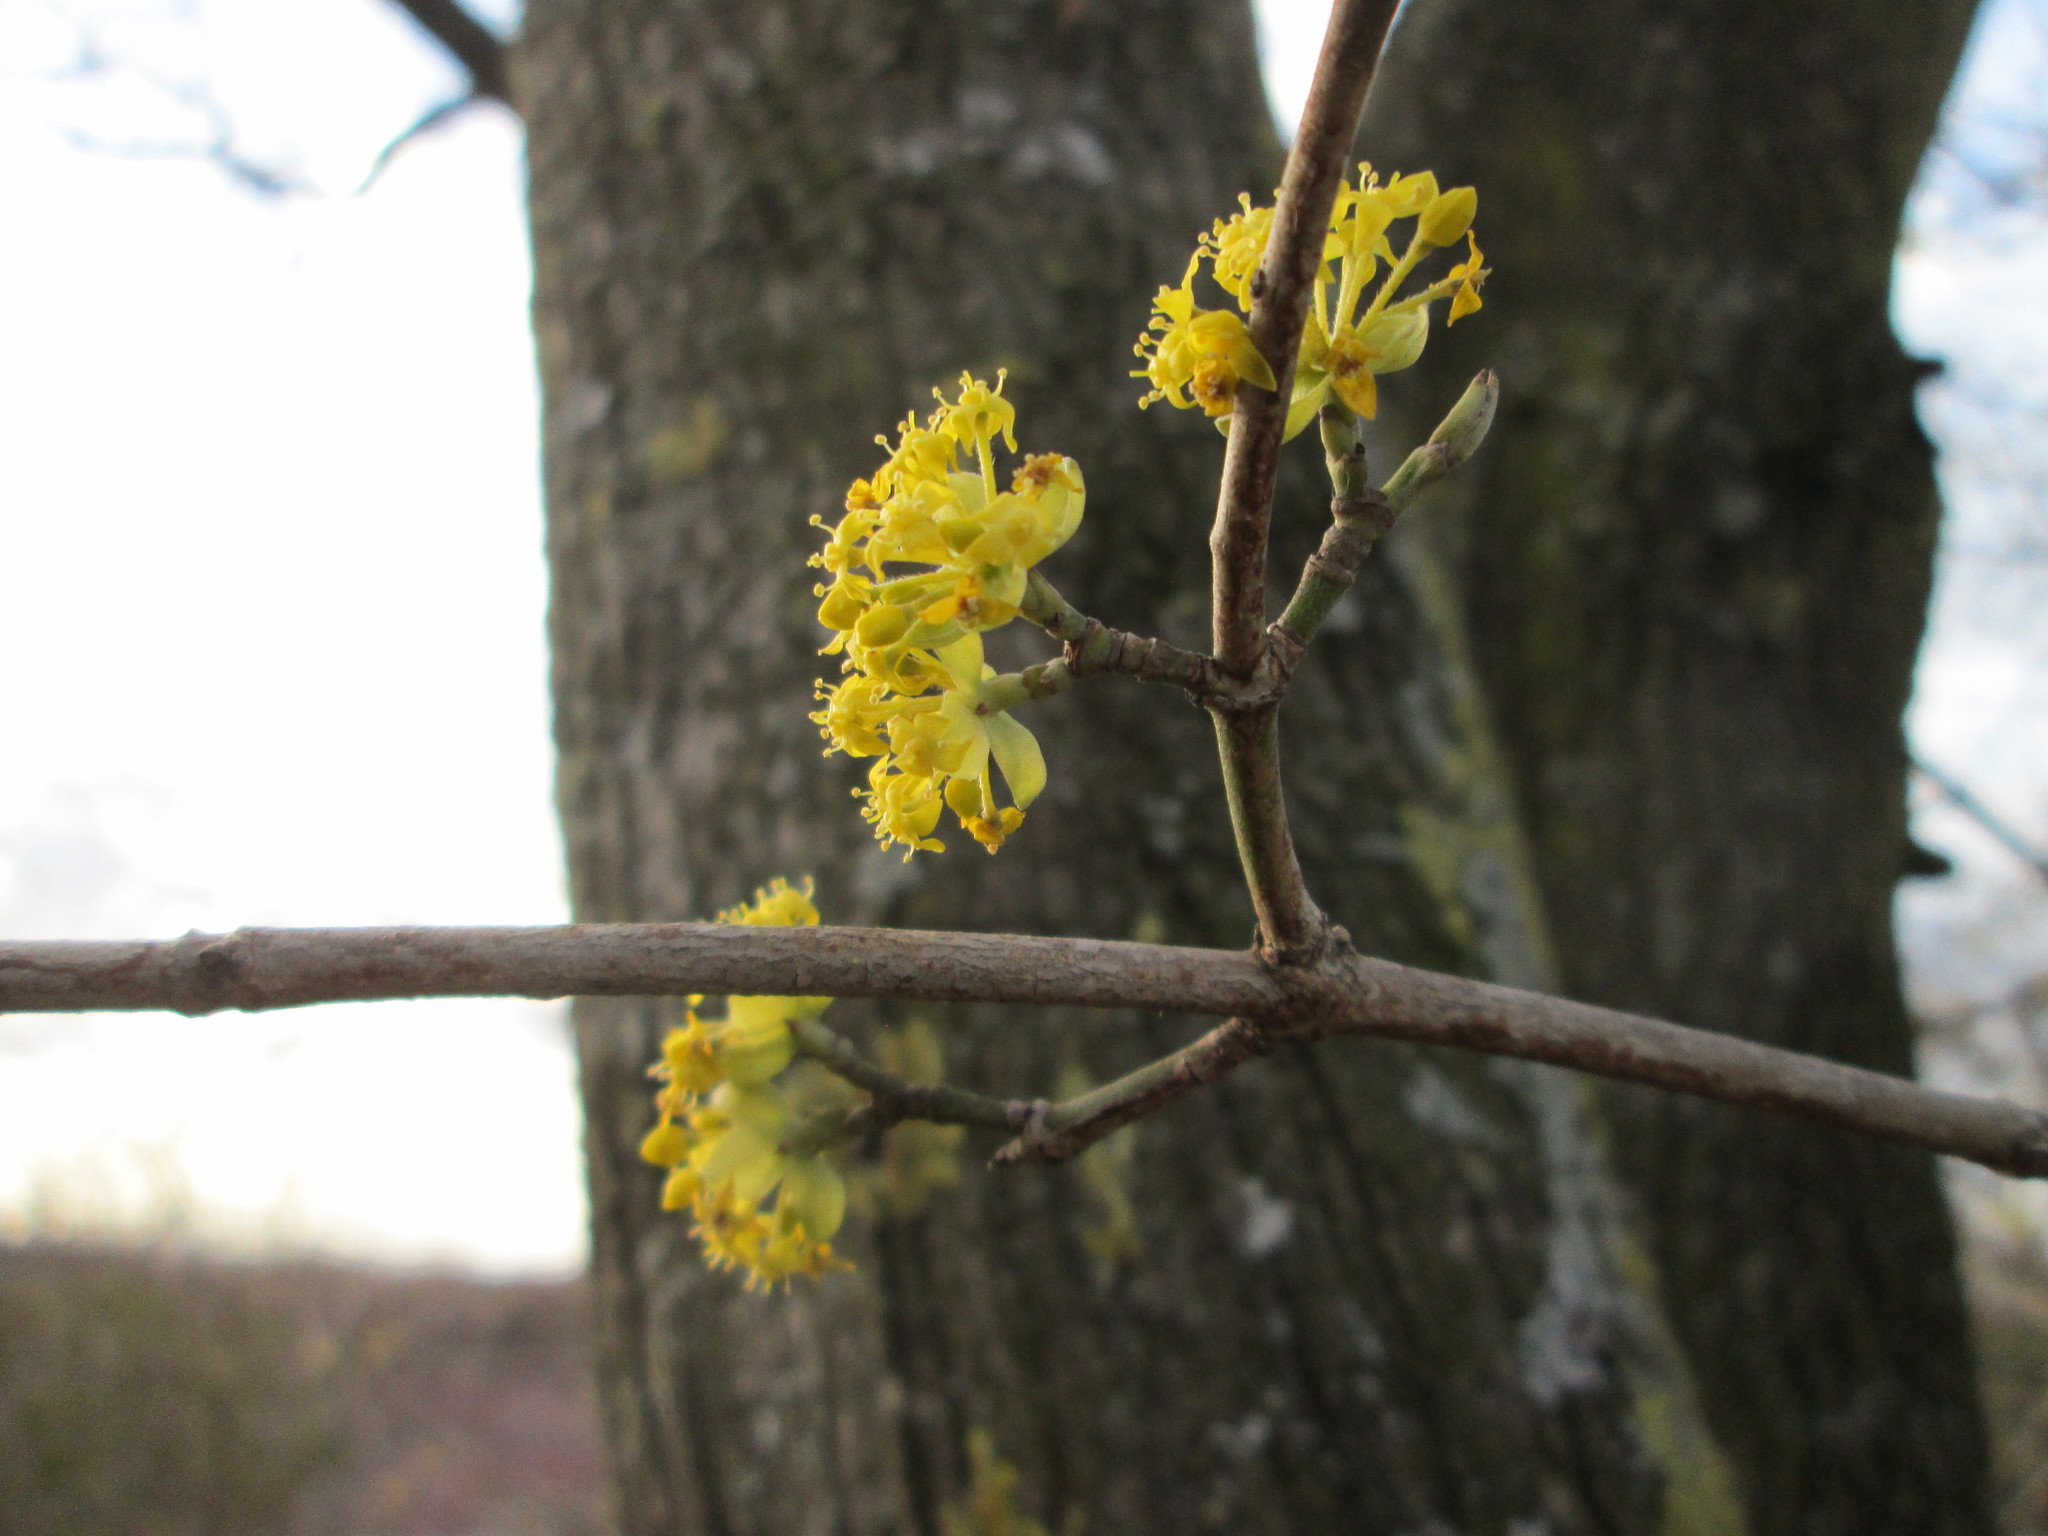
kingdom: Plantae
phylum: Tracheophyta
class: Magnoliopsida
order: Cornales
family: Cornaceae
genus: Cornus
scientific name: Cornus mas
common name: Cornelian-cherry
